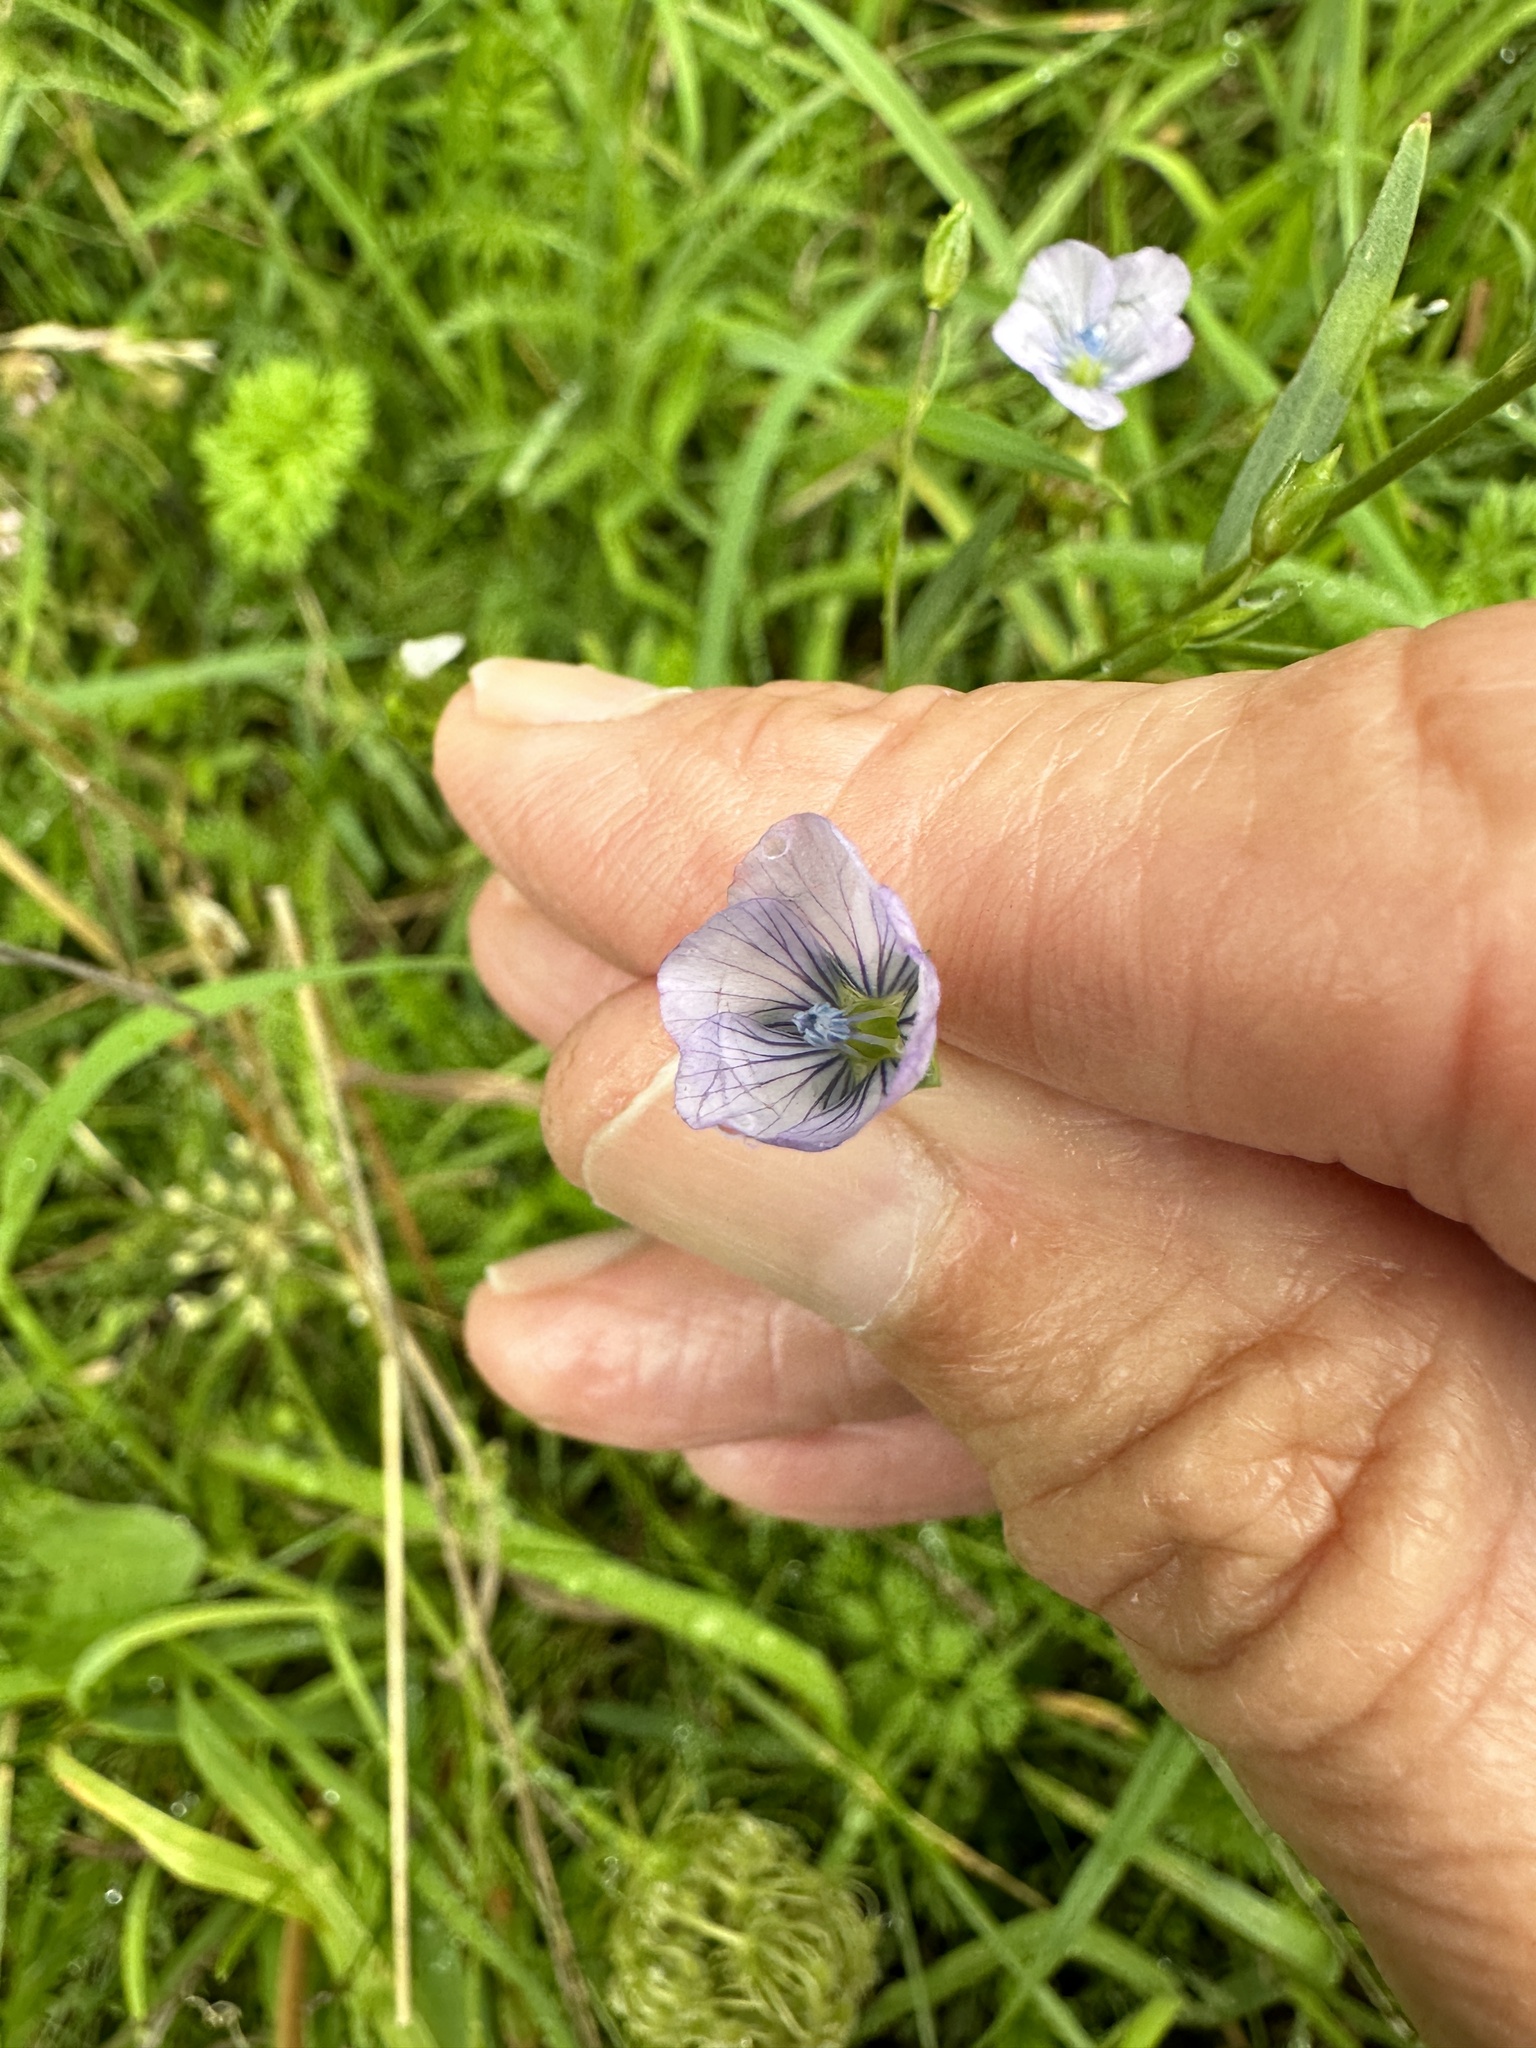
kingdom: Plantae
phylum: Tracheophyta
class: Magnoliopsida
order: Malpighiales
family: Linaceae
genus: Linum
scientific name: Linum bienne
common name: Pale flax
